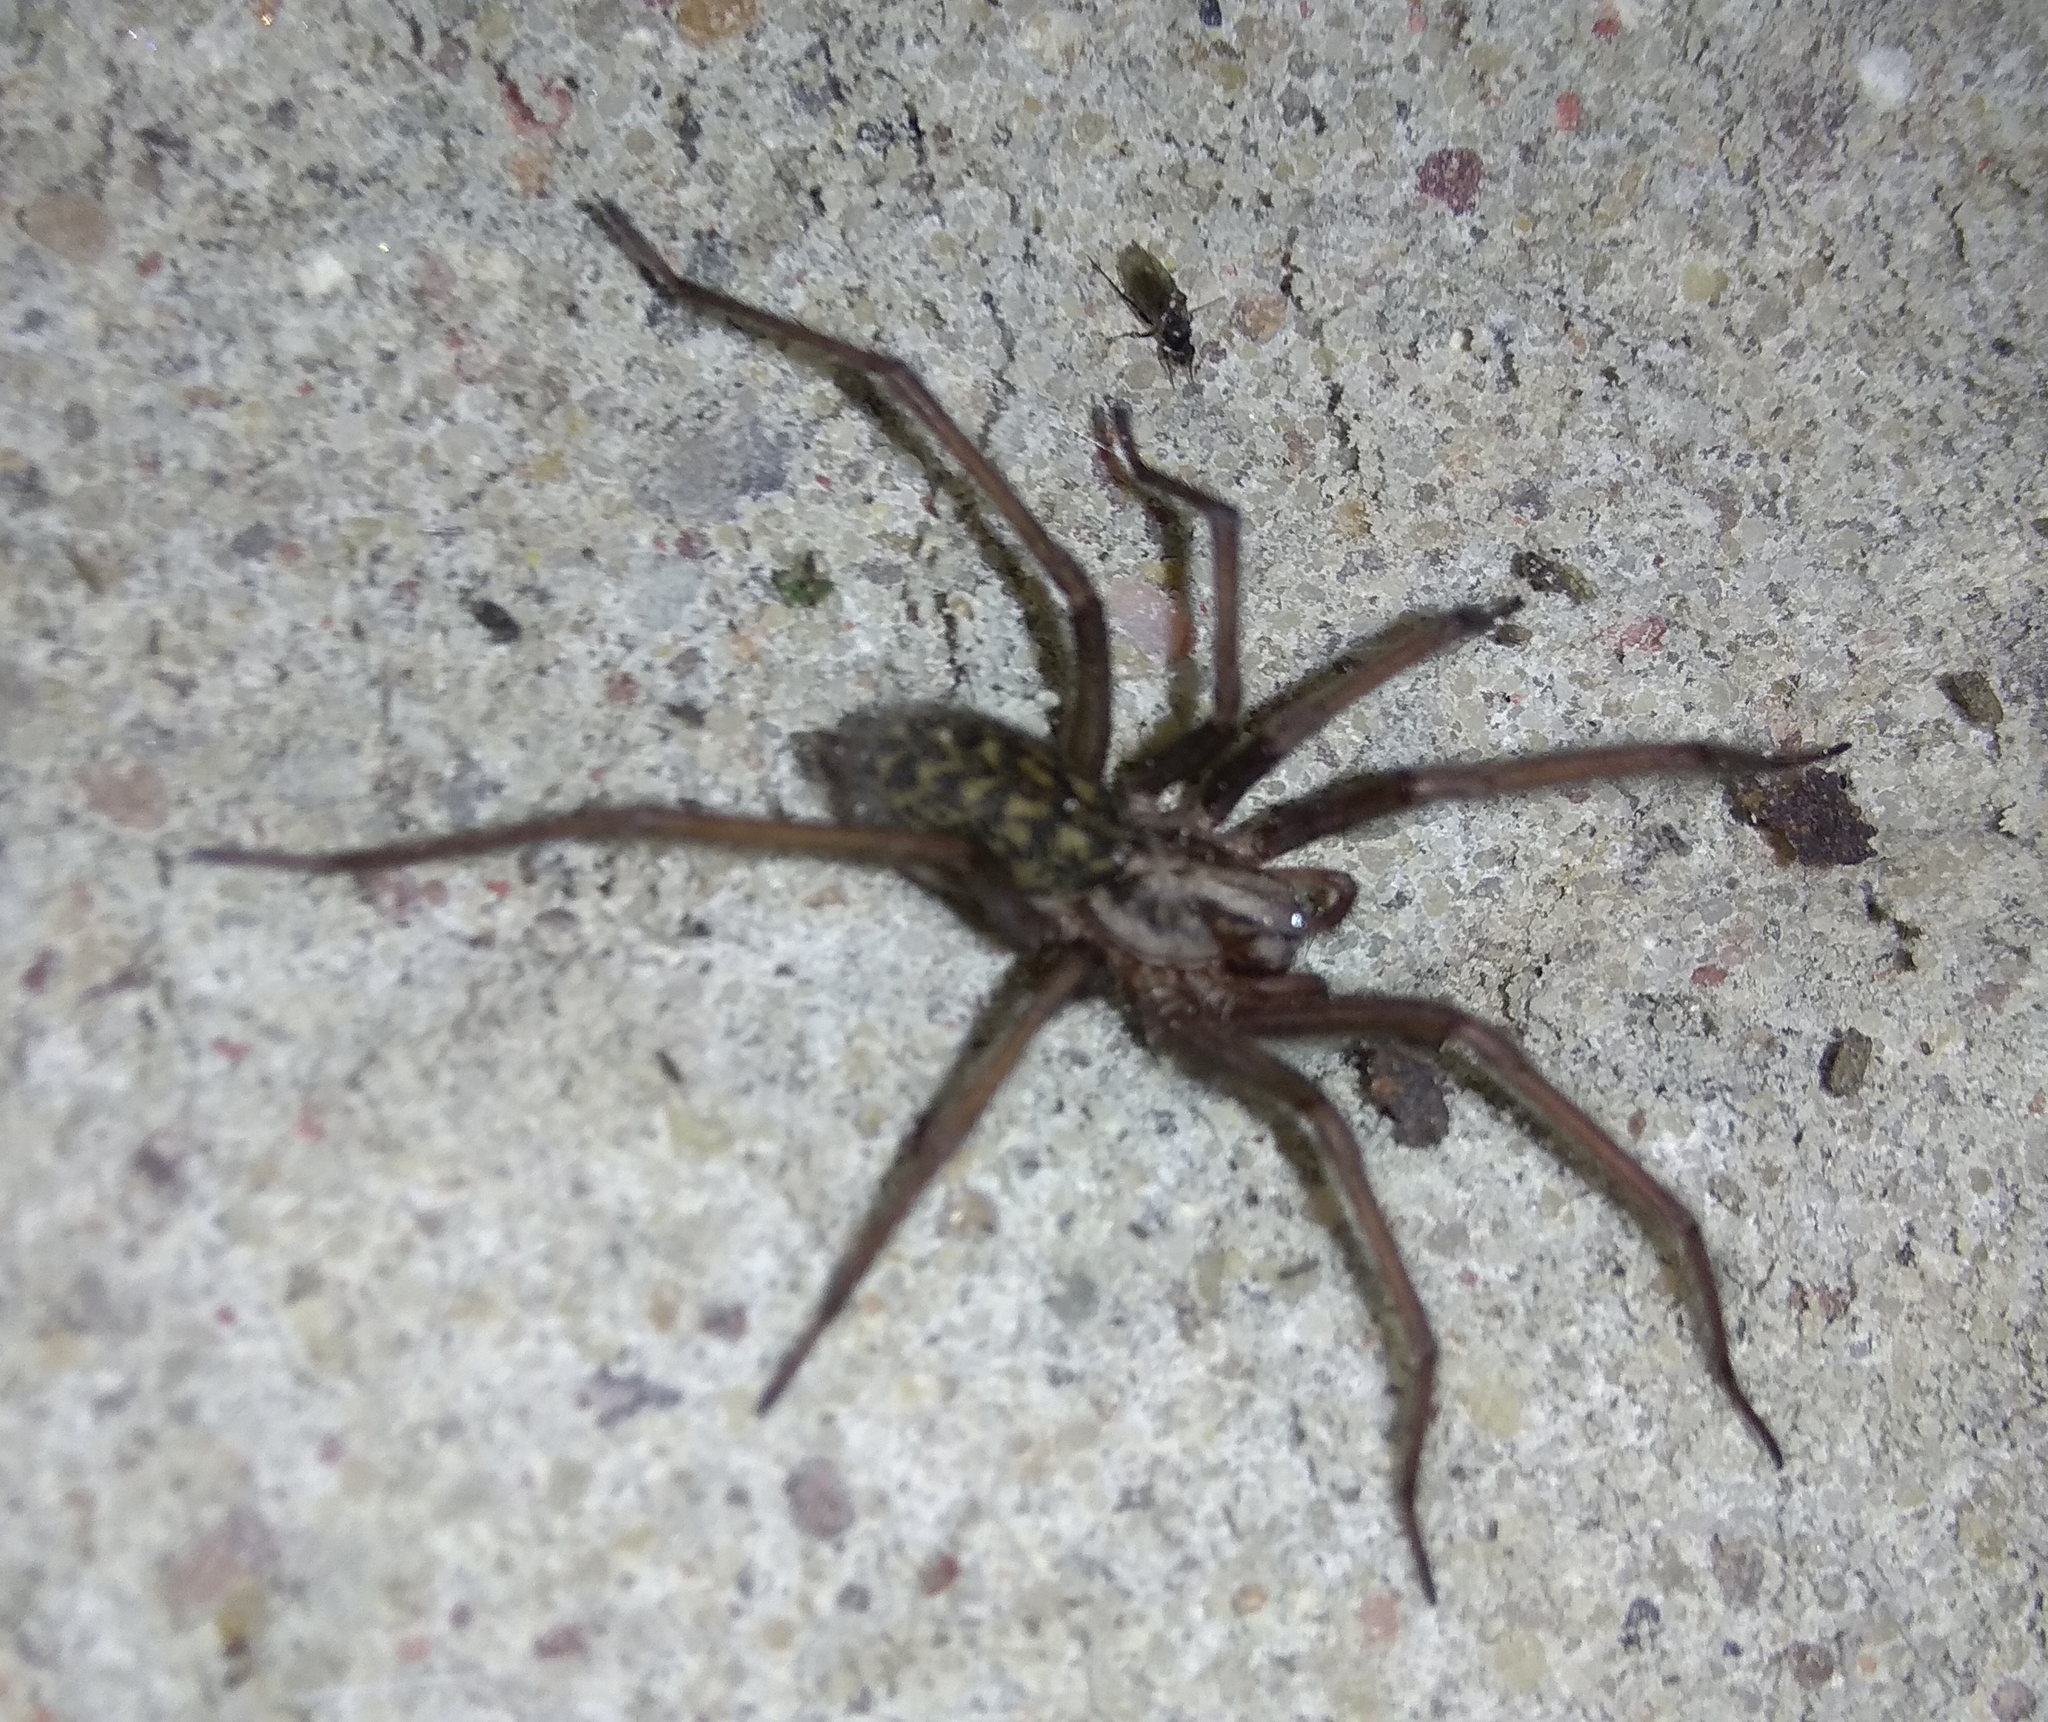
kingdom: Animalia
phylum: Arthropoda
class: Arachnida
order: Araneae
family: Agelenidae
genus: Eratigena
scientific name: Eratigena atrica
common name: Giant house spider
